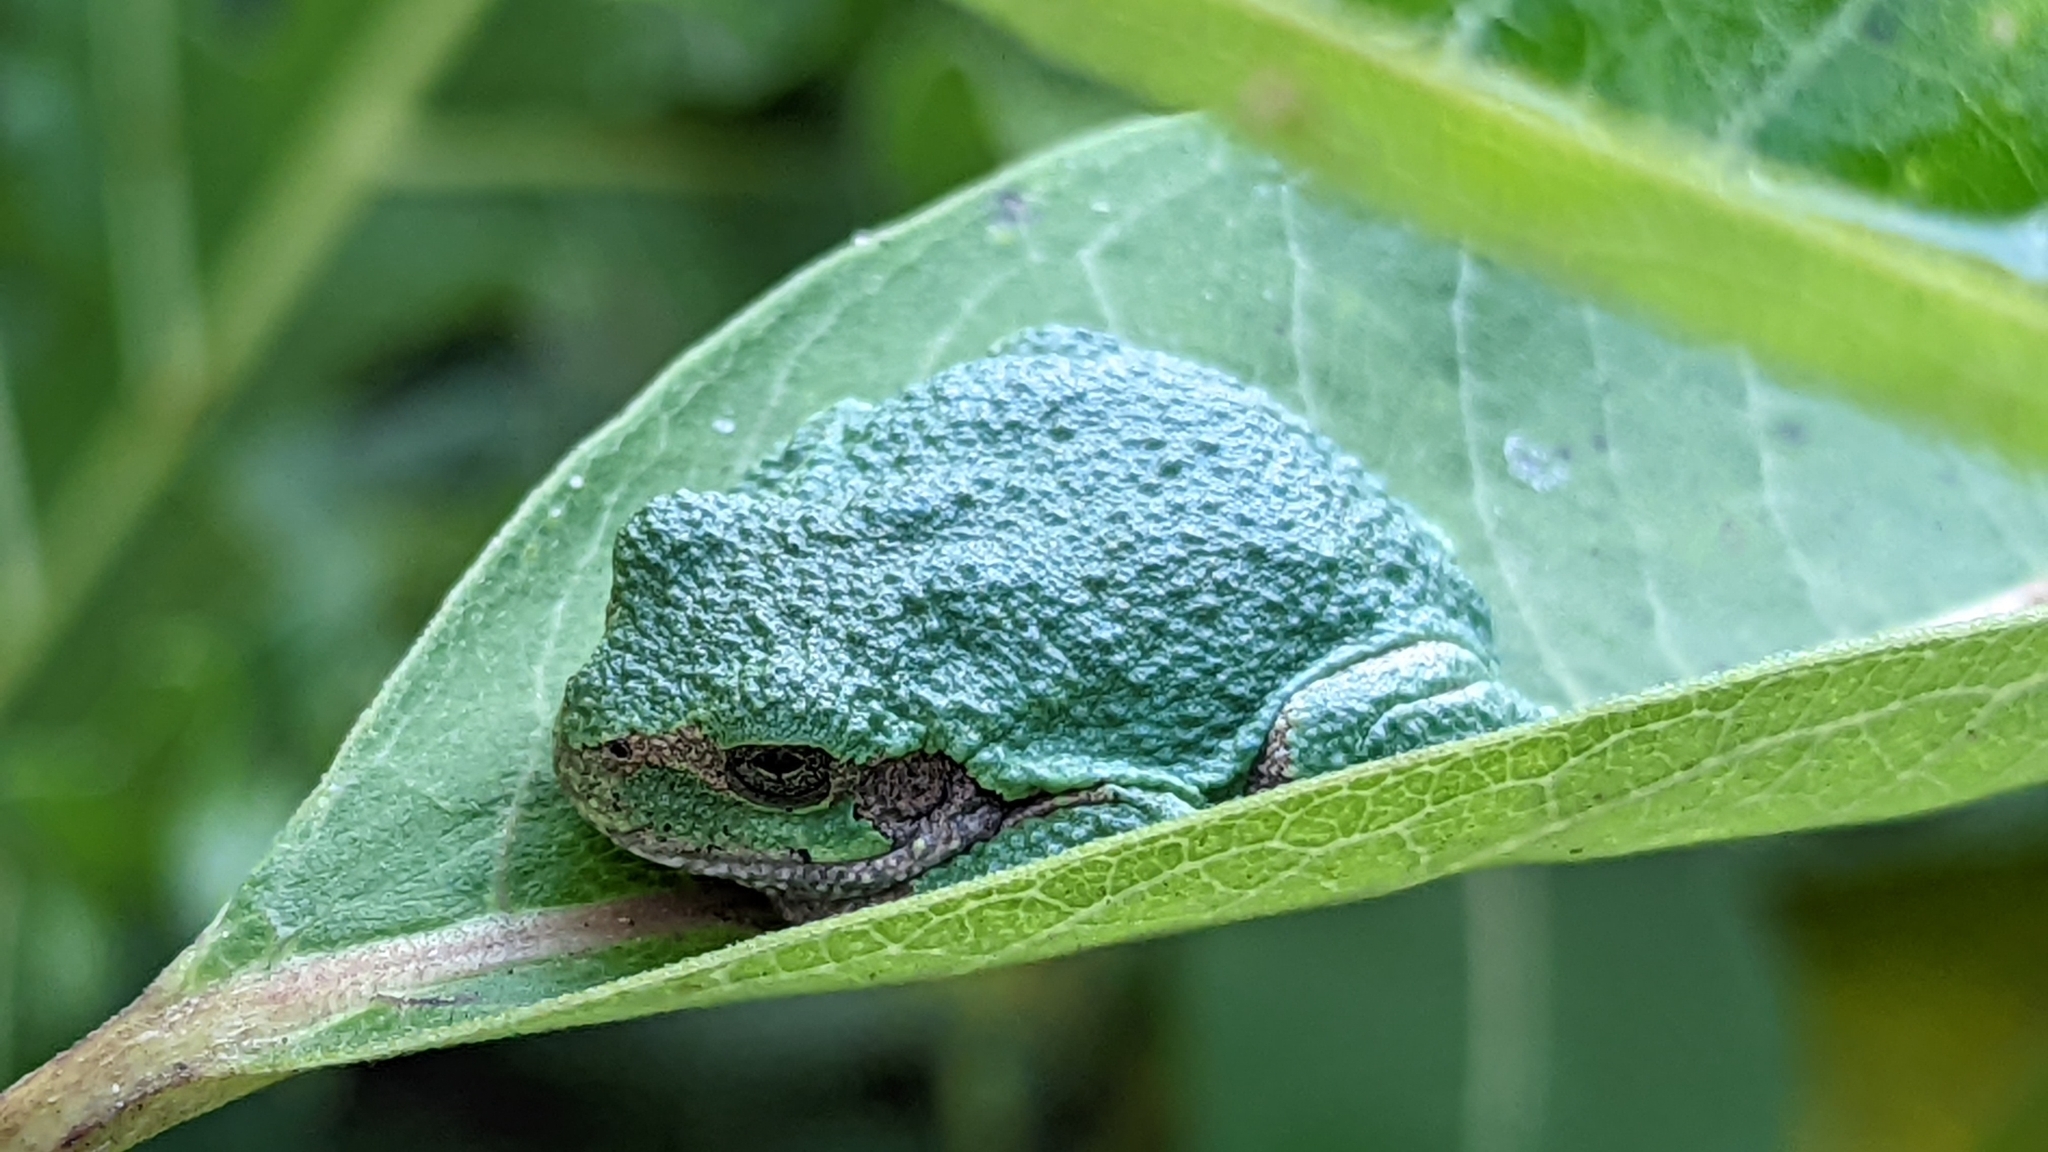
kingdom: Animalia
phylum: Chordata
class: Amphibia
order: Anura
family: Hylidae
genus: Dryophytes
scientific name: Dryophytes versicolor
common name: Gray treefrog
